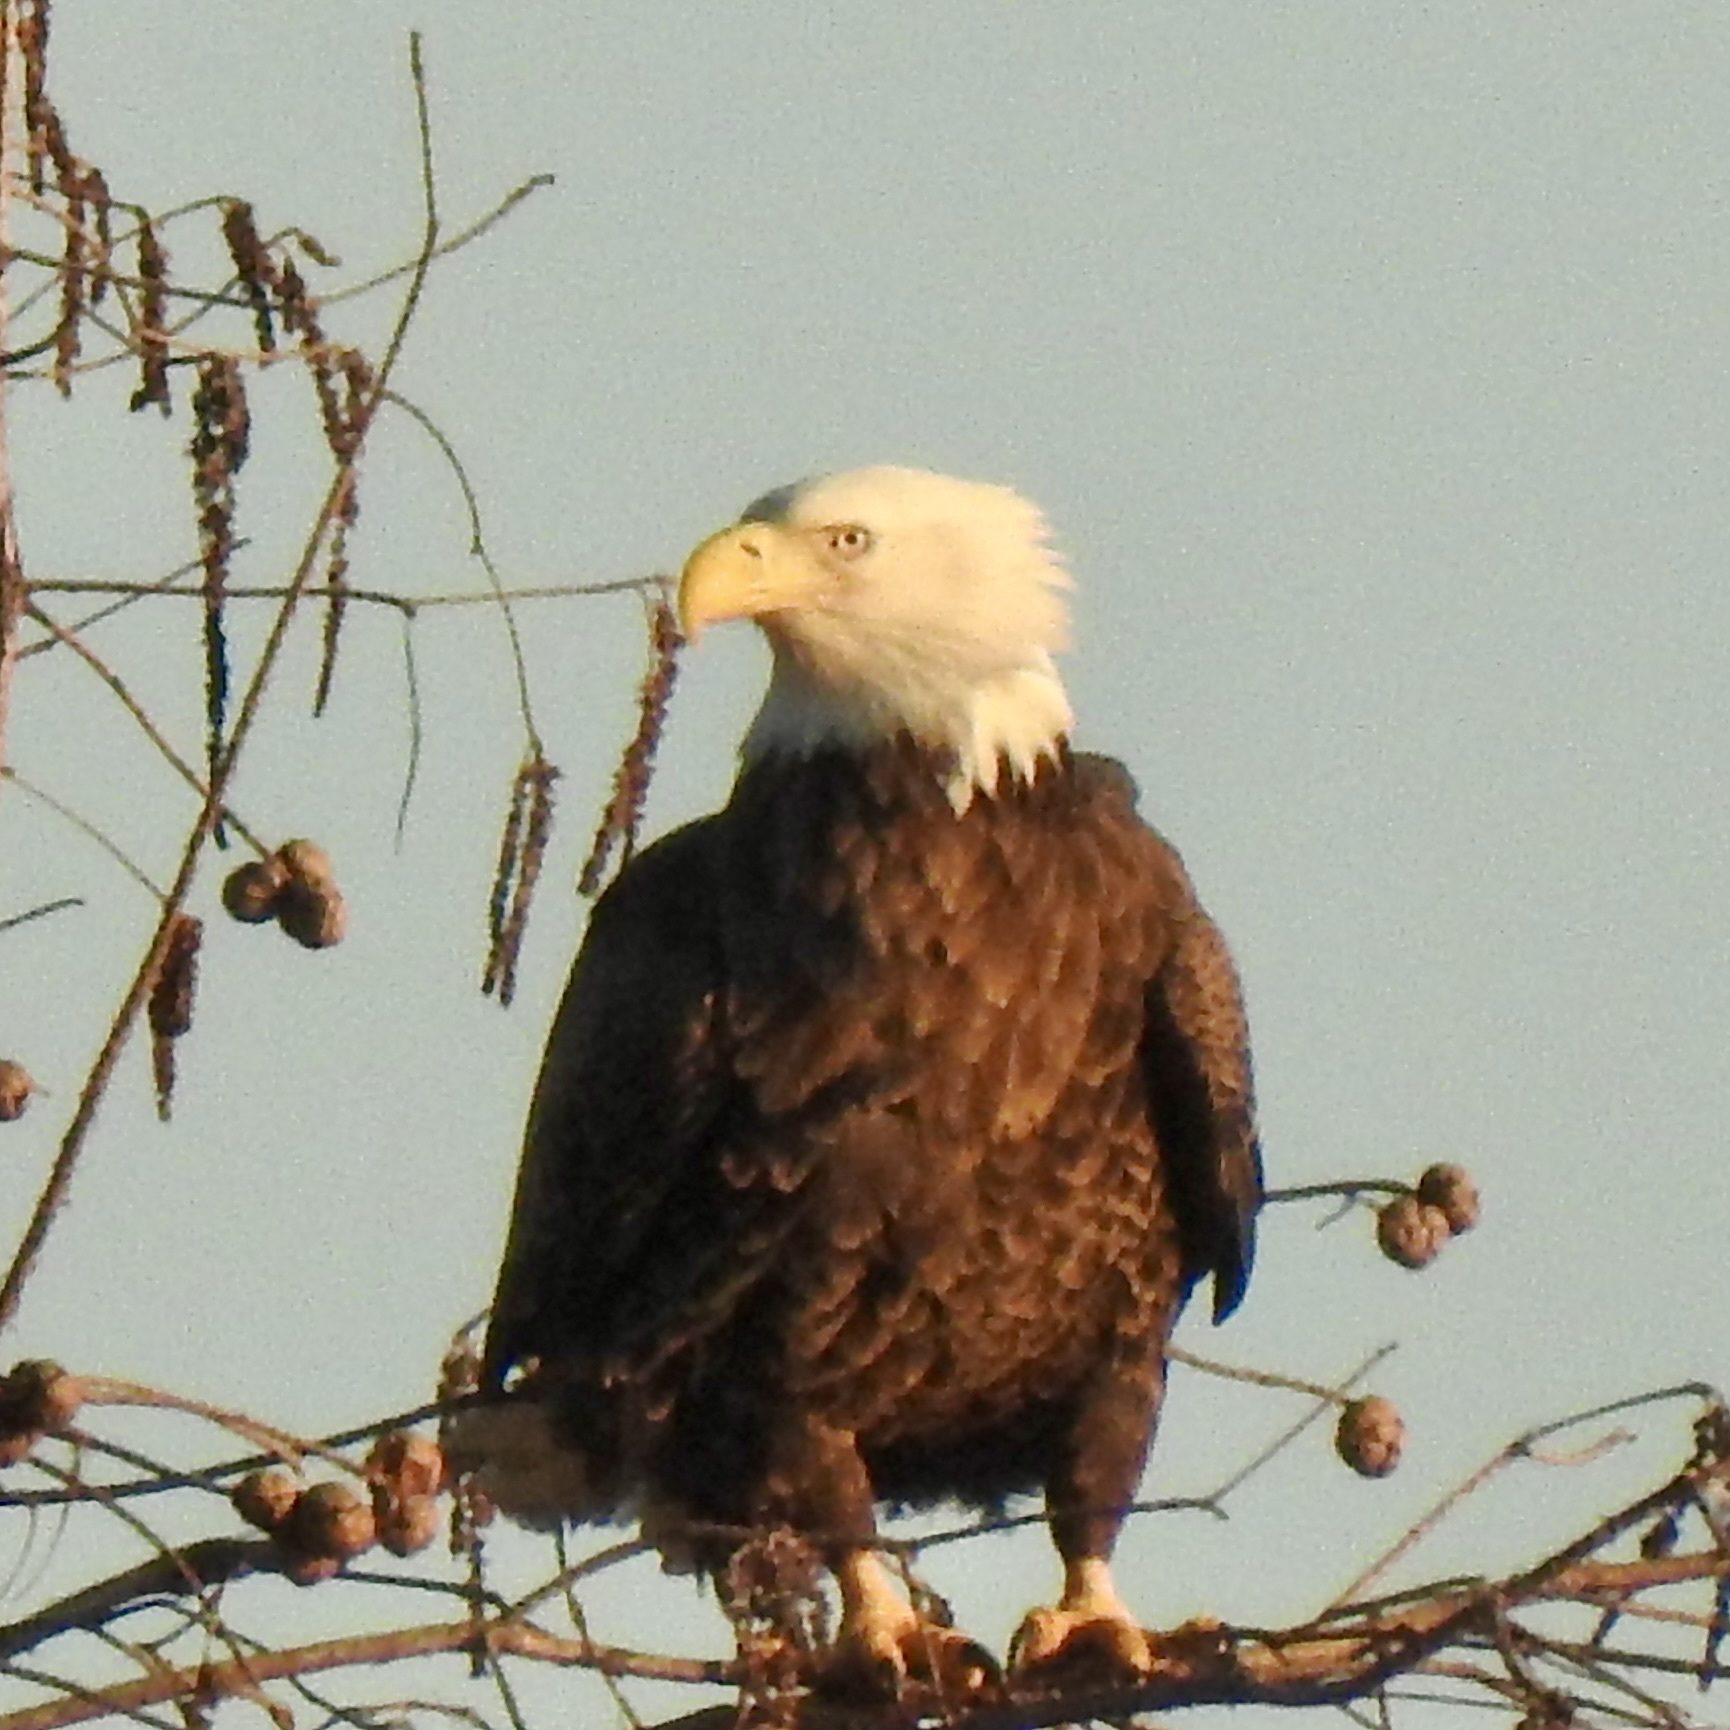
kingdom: Animalia
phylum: Chordata
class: Aves
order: Accipitriformes
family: Accipitridae
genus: Haliaeetus
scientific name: Haliaeetus leucocephalus
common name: Bald eagle
